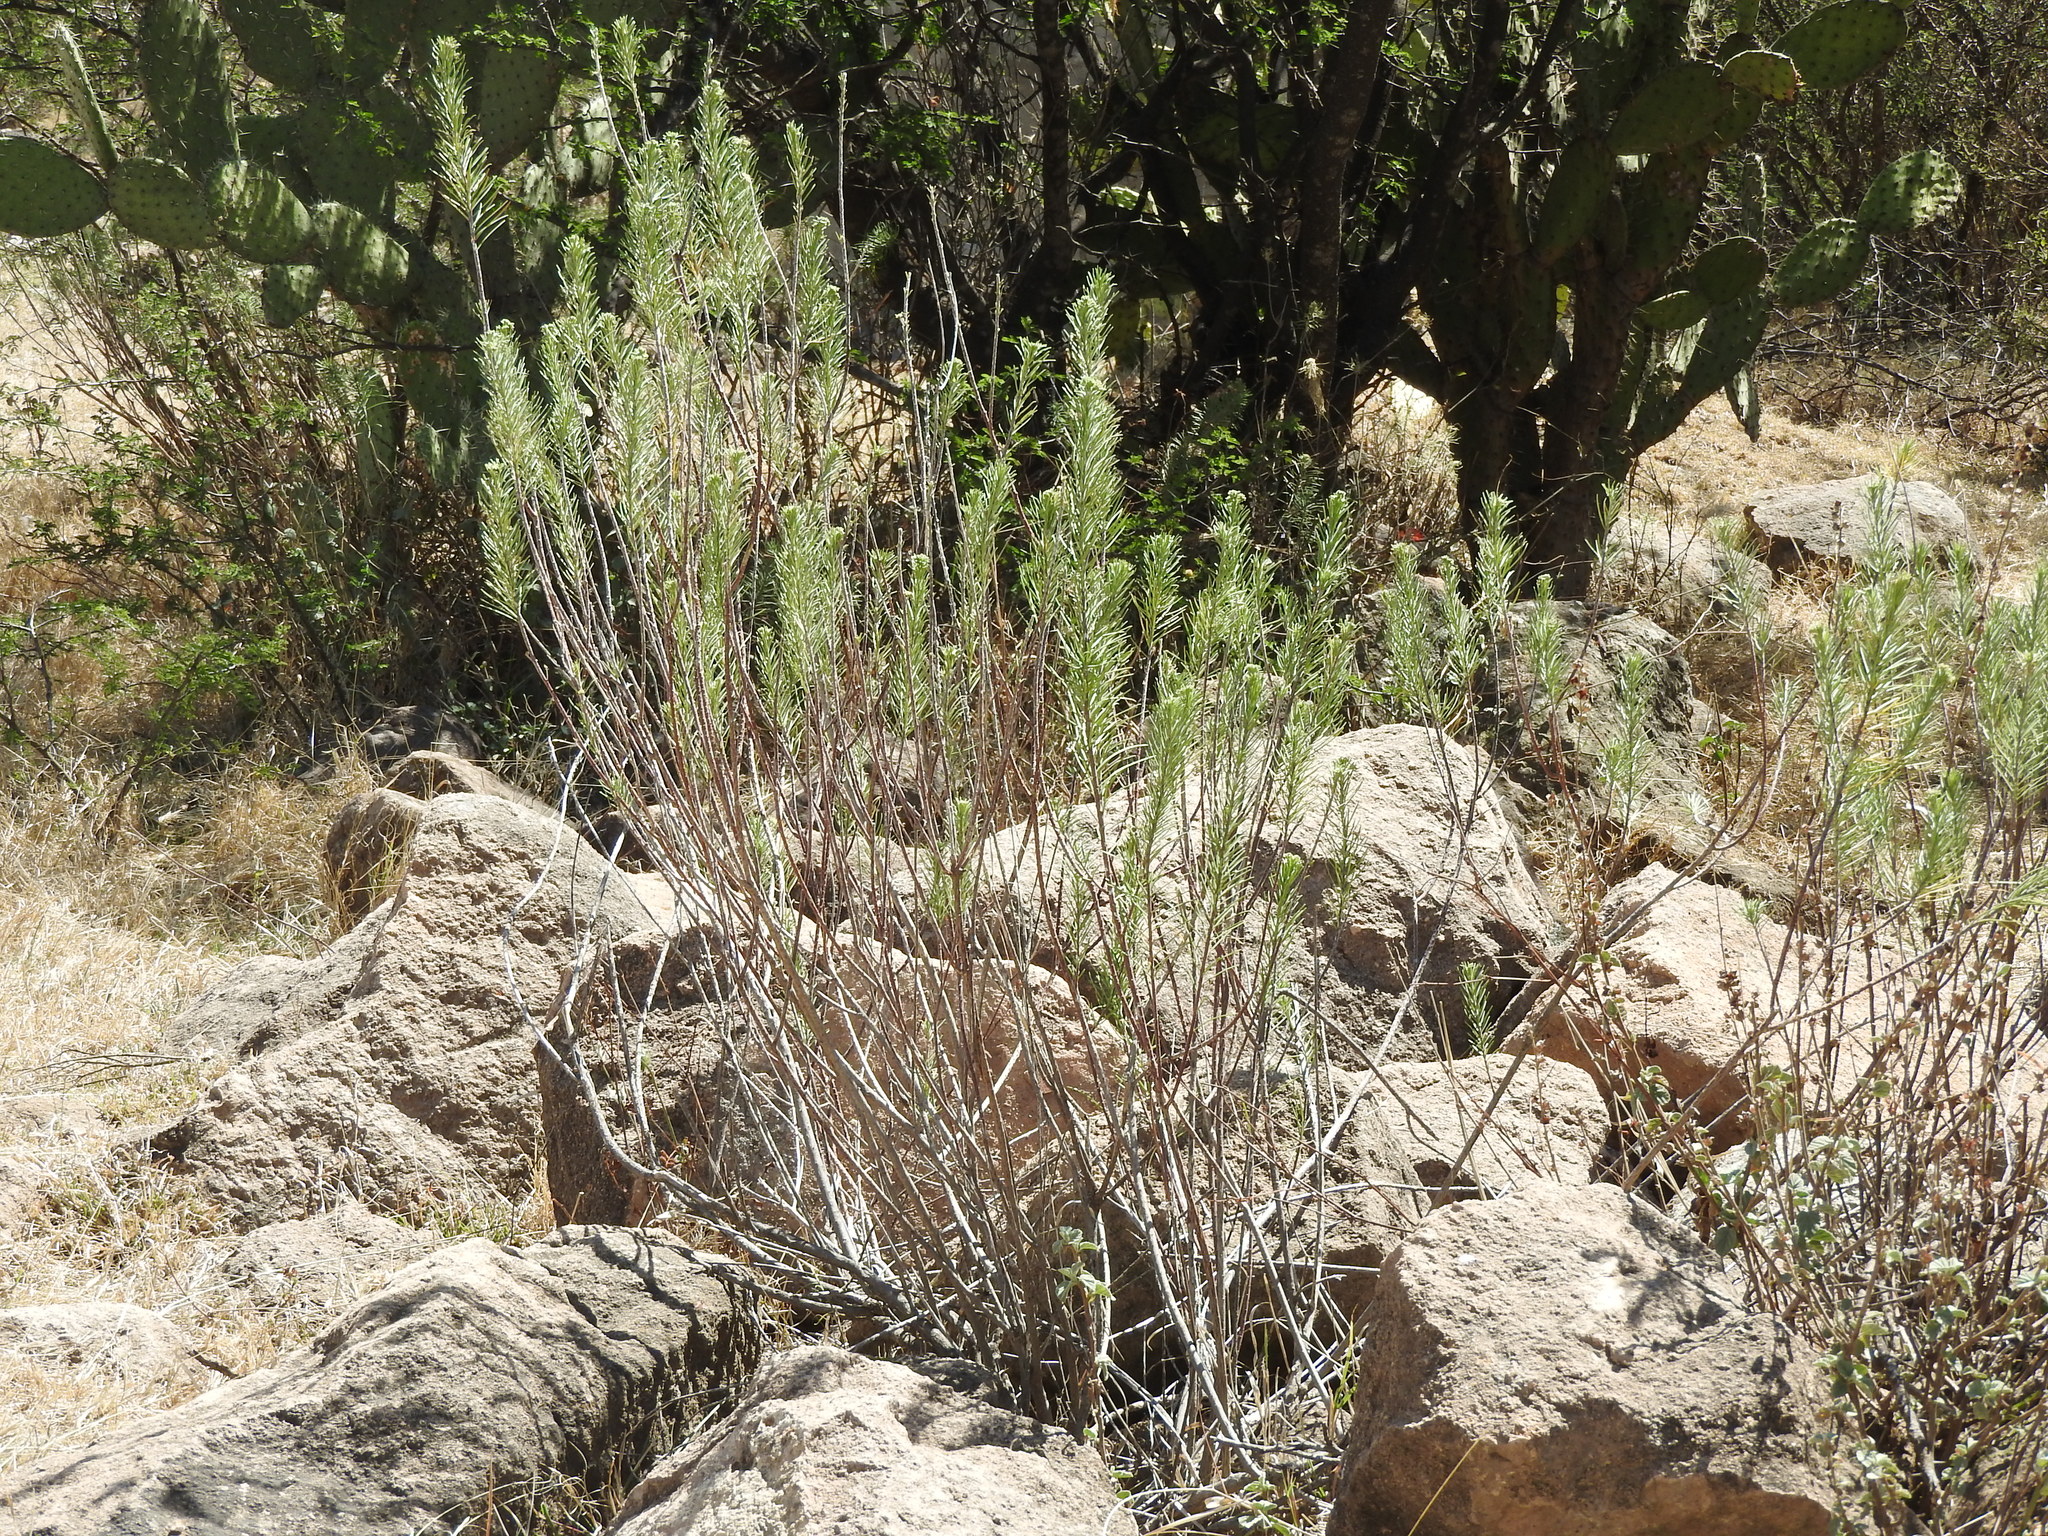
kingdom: Plantae
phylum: Tracheophyta
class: Magnoliopsida
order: Gentianales
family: Apocynaceae
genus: Asclepias
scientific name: Asclepias linaria
